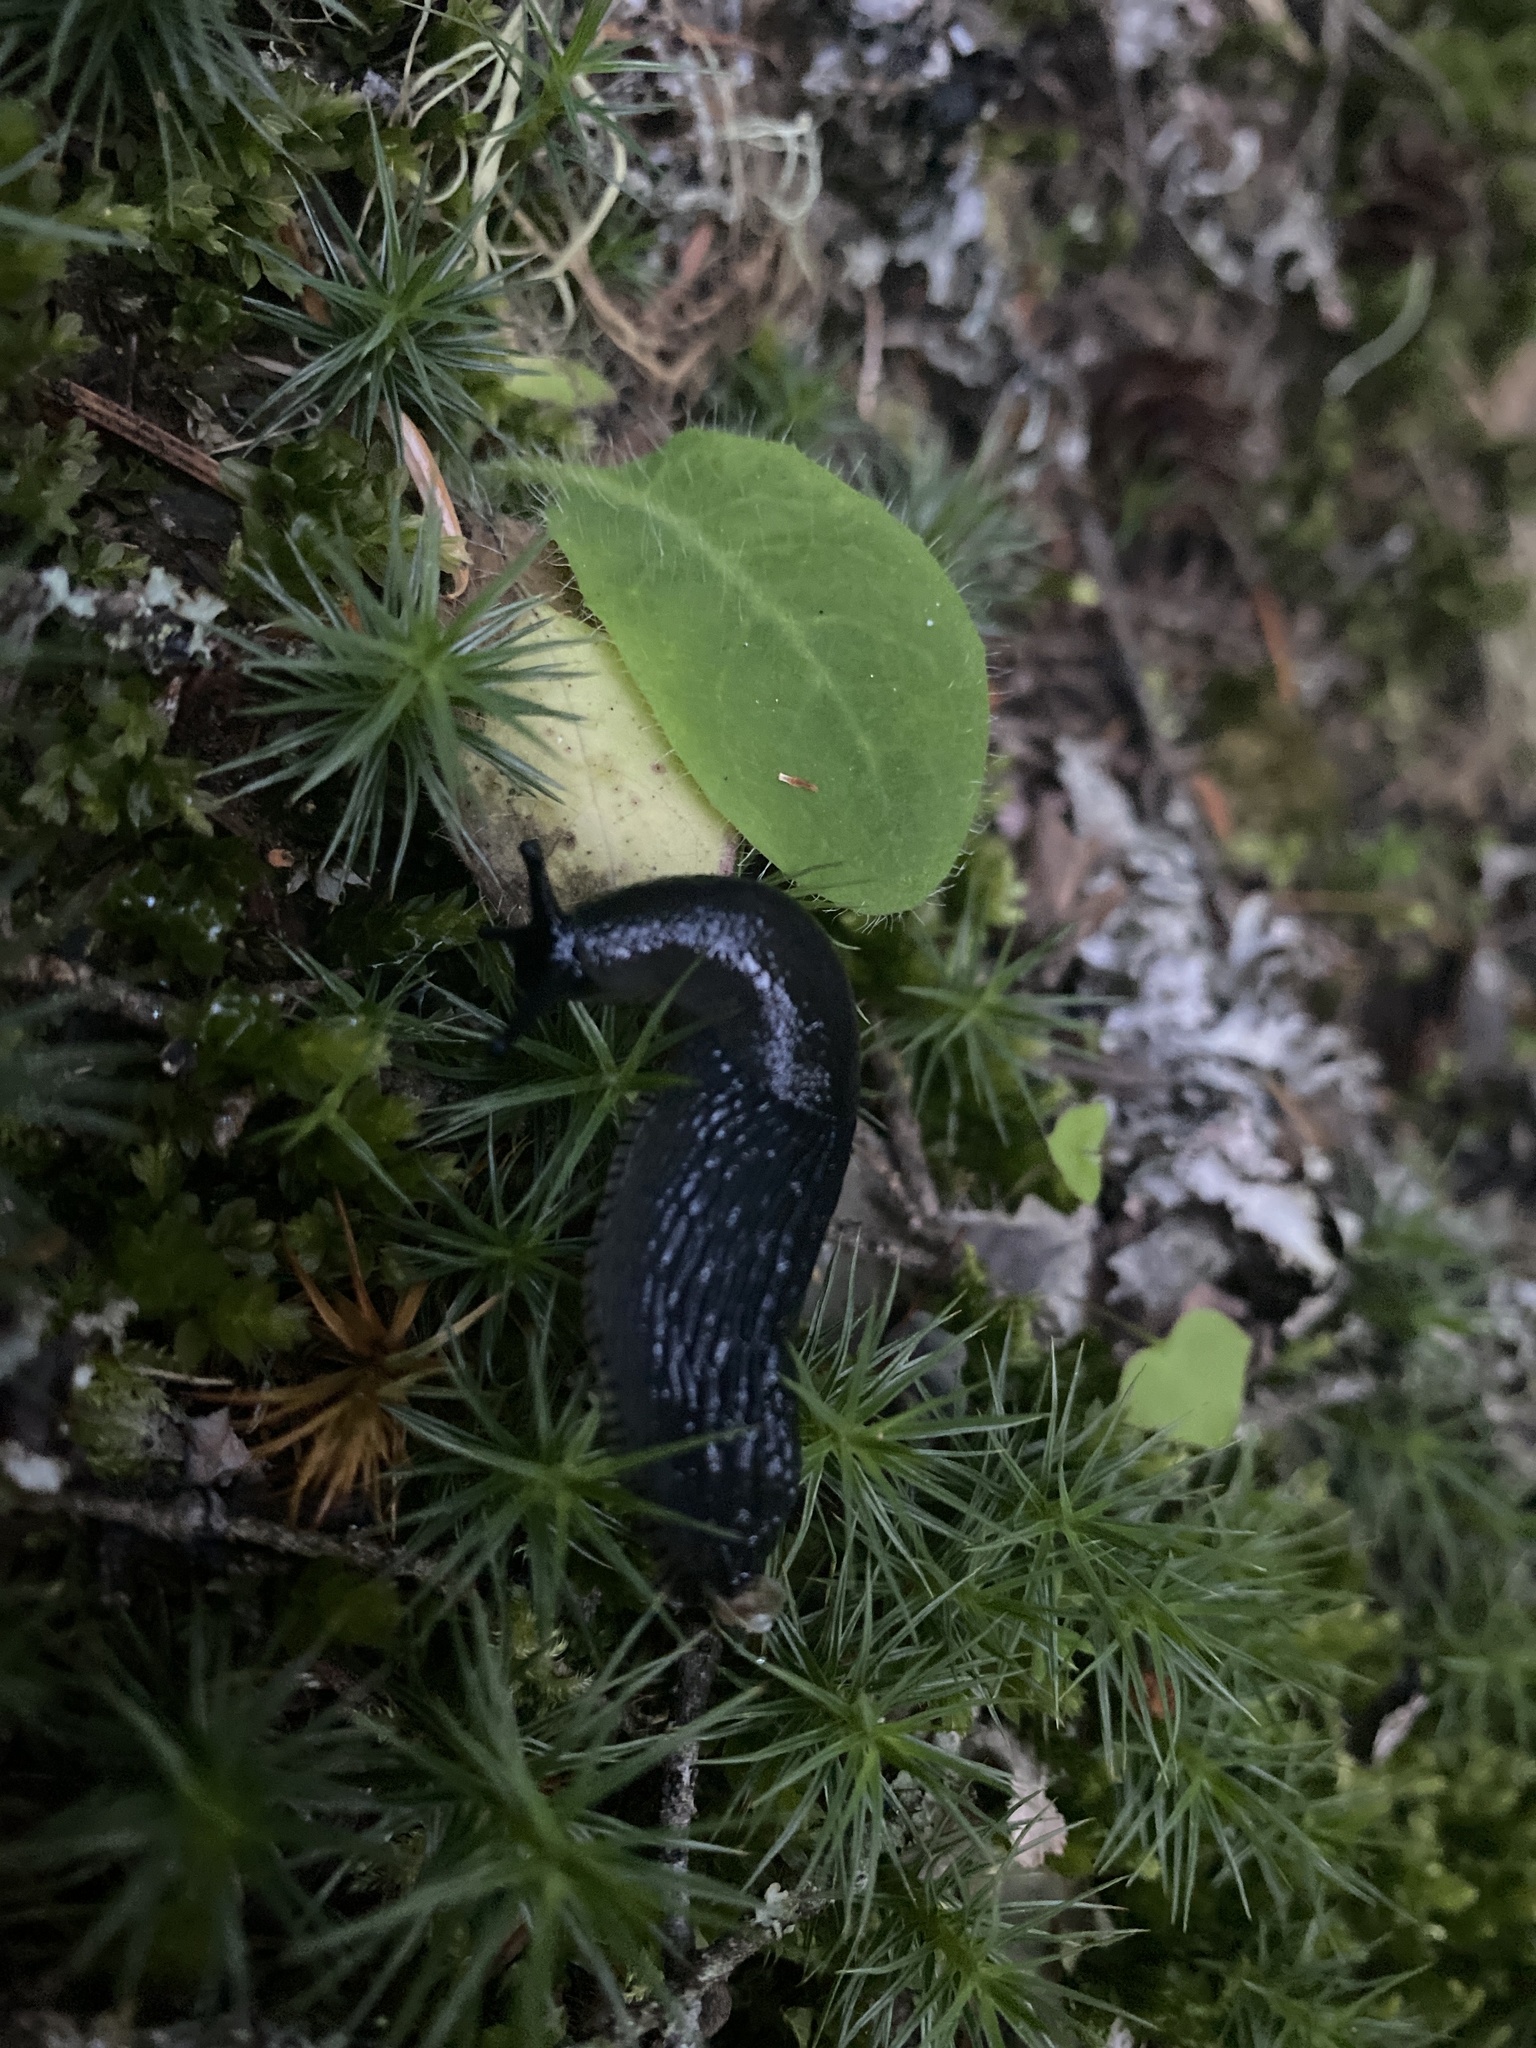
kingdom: Animalia
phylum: Mollusca
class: Gastropoda
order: Stylommatophora
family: Arionidae
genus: Arion
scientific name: Arion
